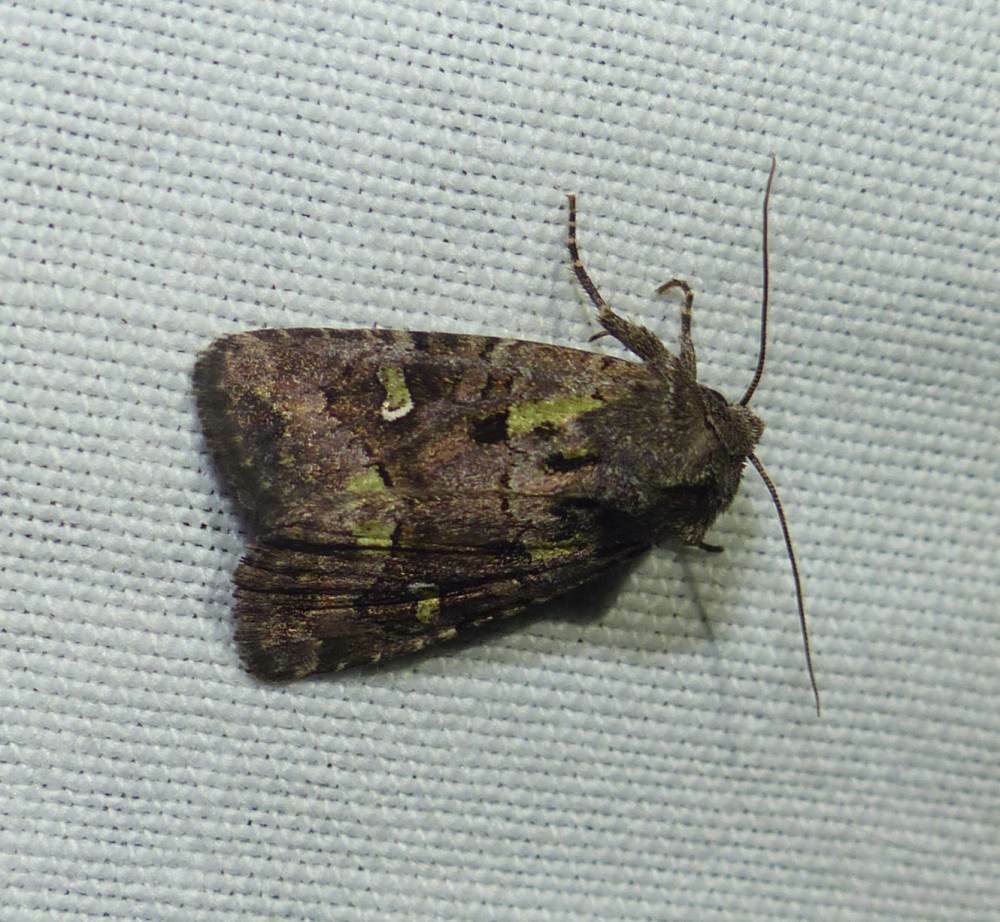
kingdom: Animalia
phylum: Arthropoda
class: Insecta
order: Lepidoptera
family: Noctuidae
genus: Lacinipolia
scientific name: Lacinipolia renigera
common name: Kidney-spotted minor
